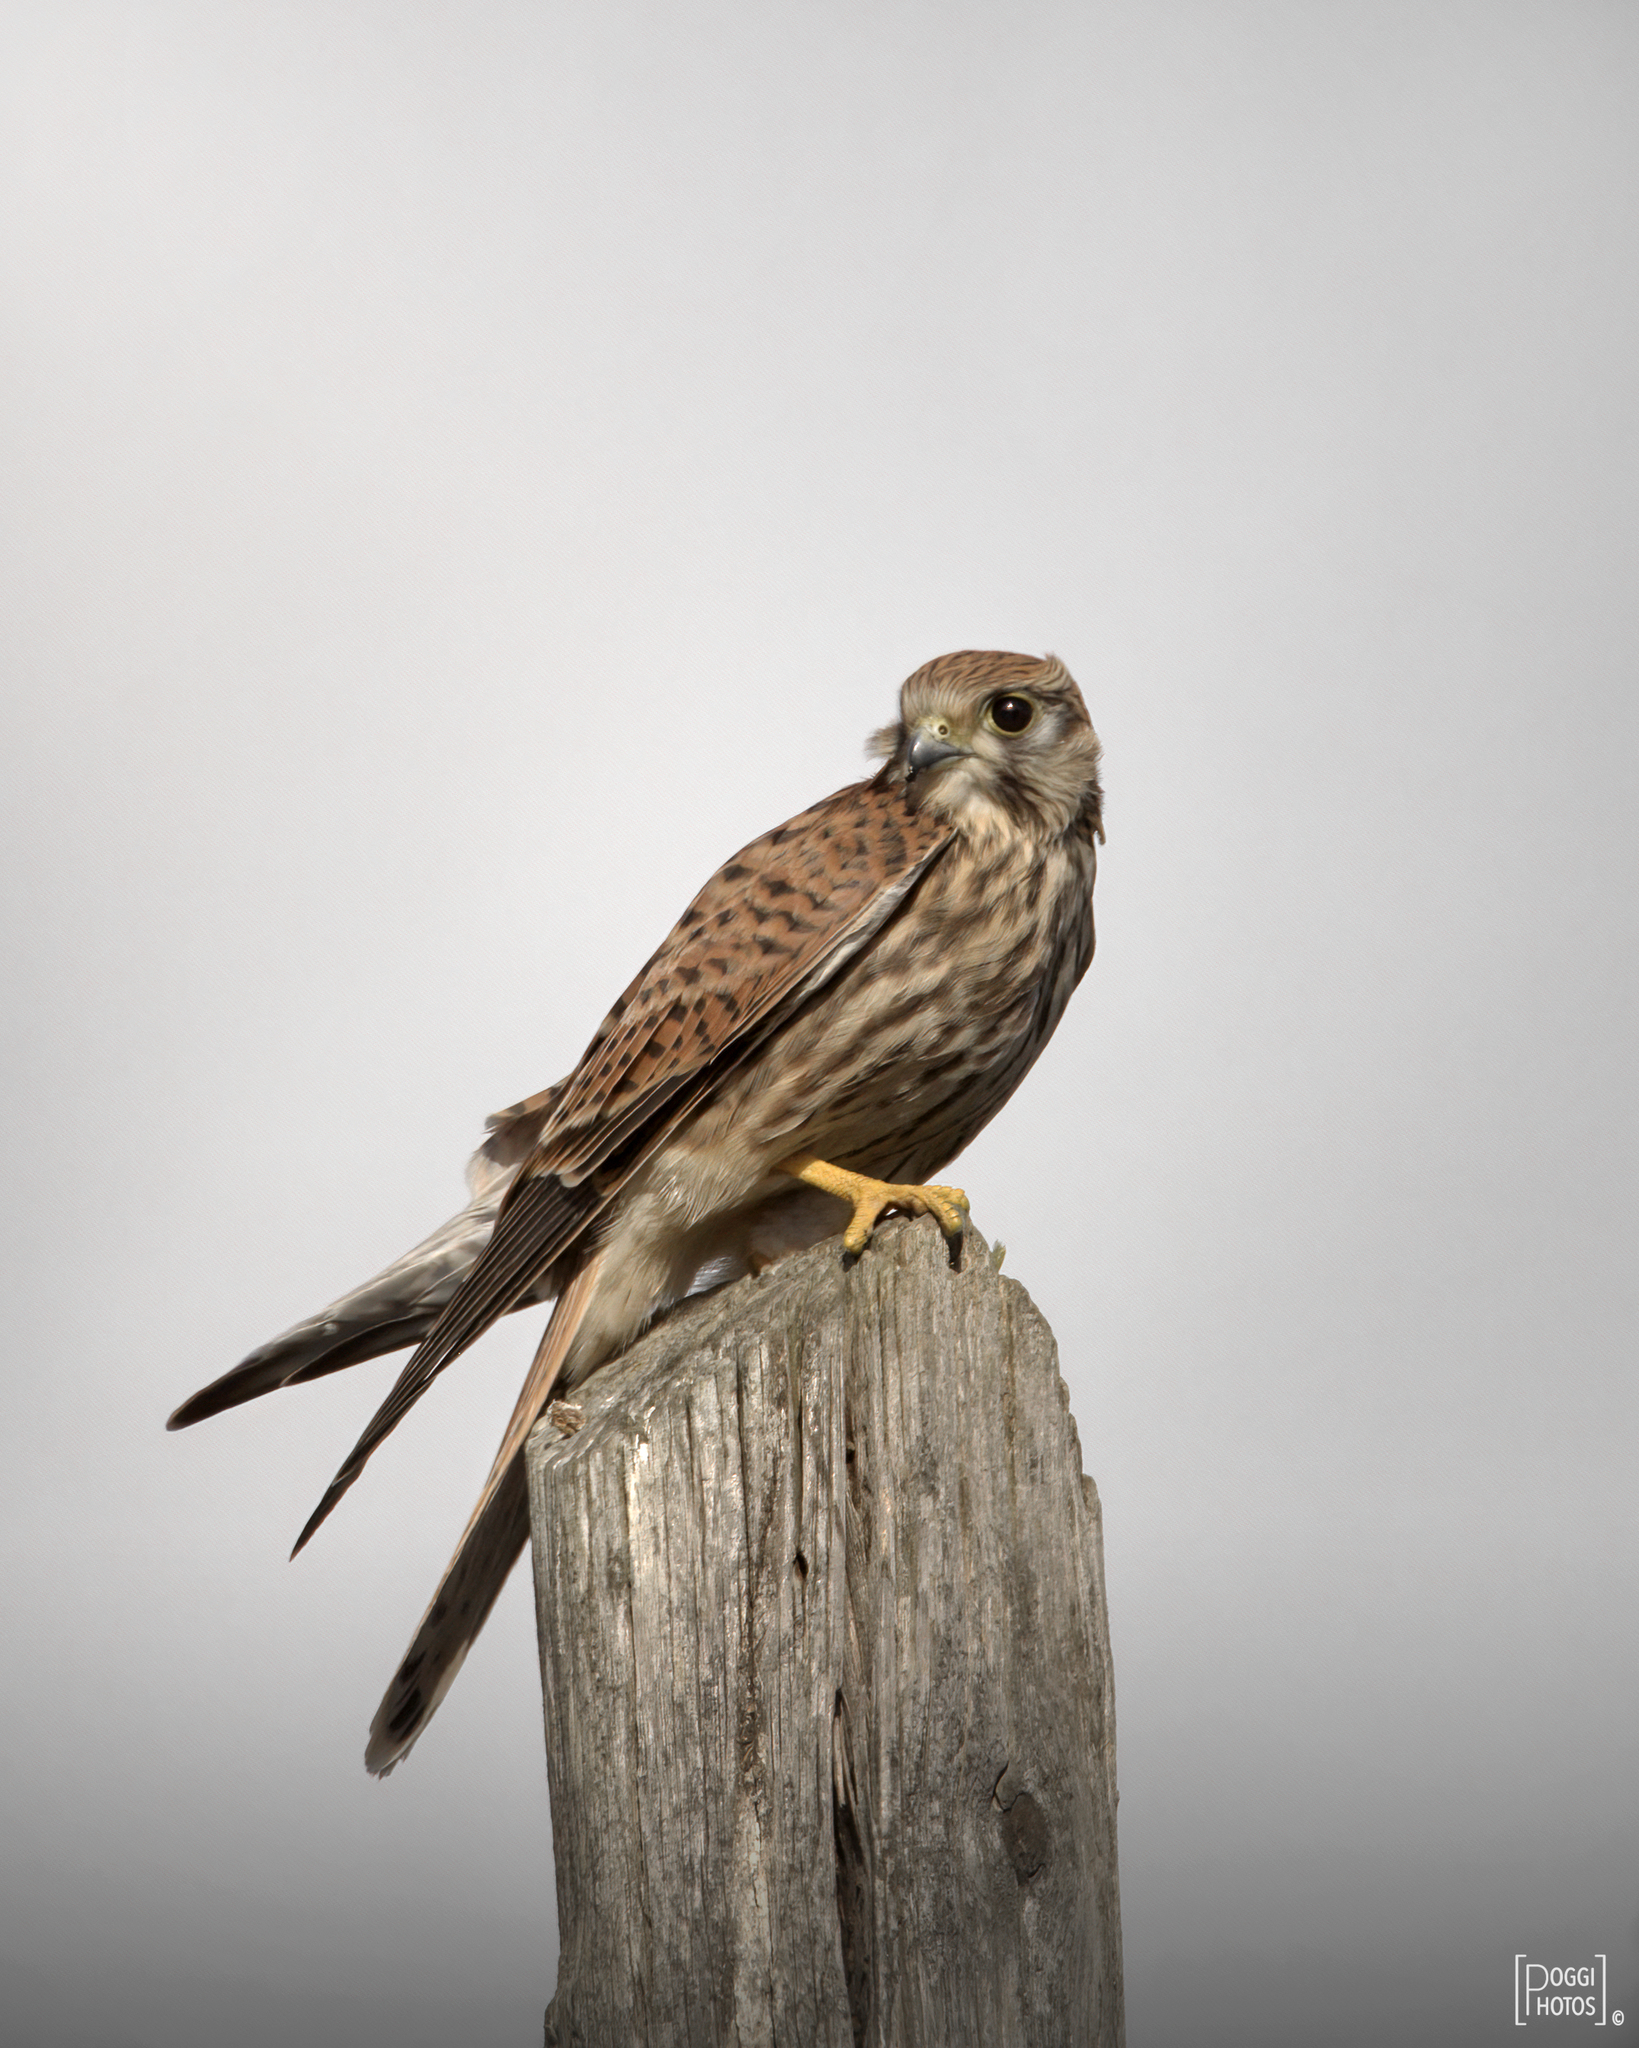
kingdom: Animalia
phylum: Chordata
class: Aves
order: Falconiformes
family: Falconidae
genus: Falco
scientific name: Falco tinnunculus
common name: Common kestrel
